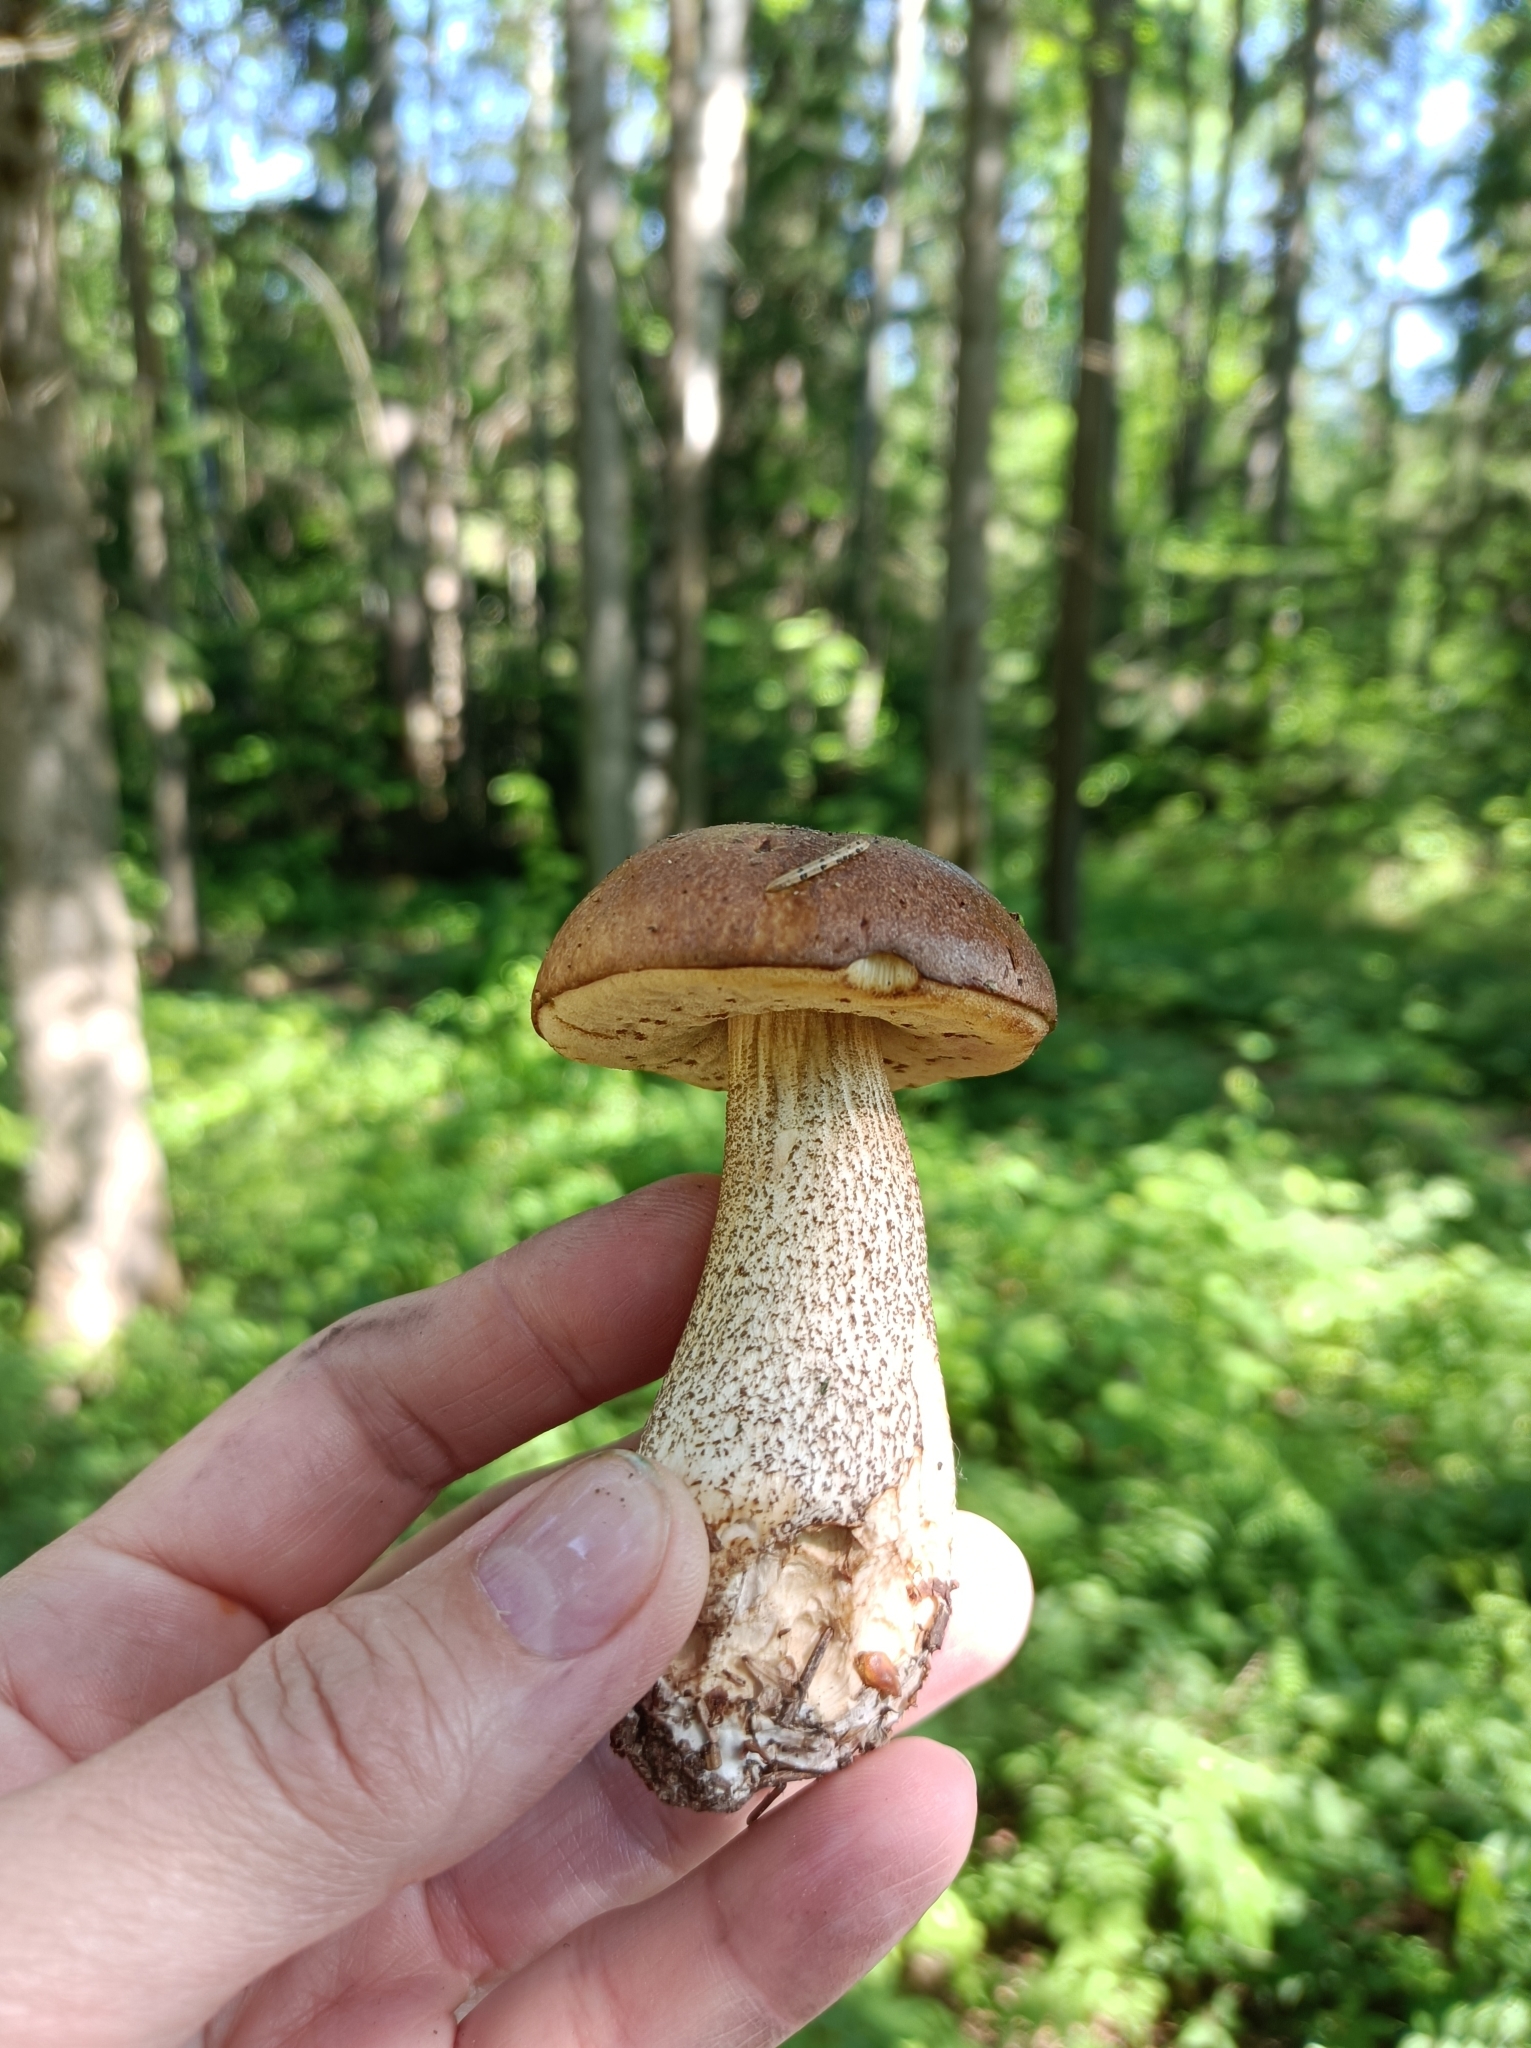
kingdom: Fungi
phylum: Basidiomycota
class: Agaricomycetes
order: Boletales
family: Boletaceae
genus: Leccinum
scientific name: Leccinum scabrum
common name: Blushing bolete
